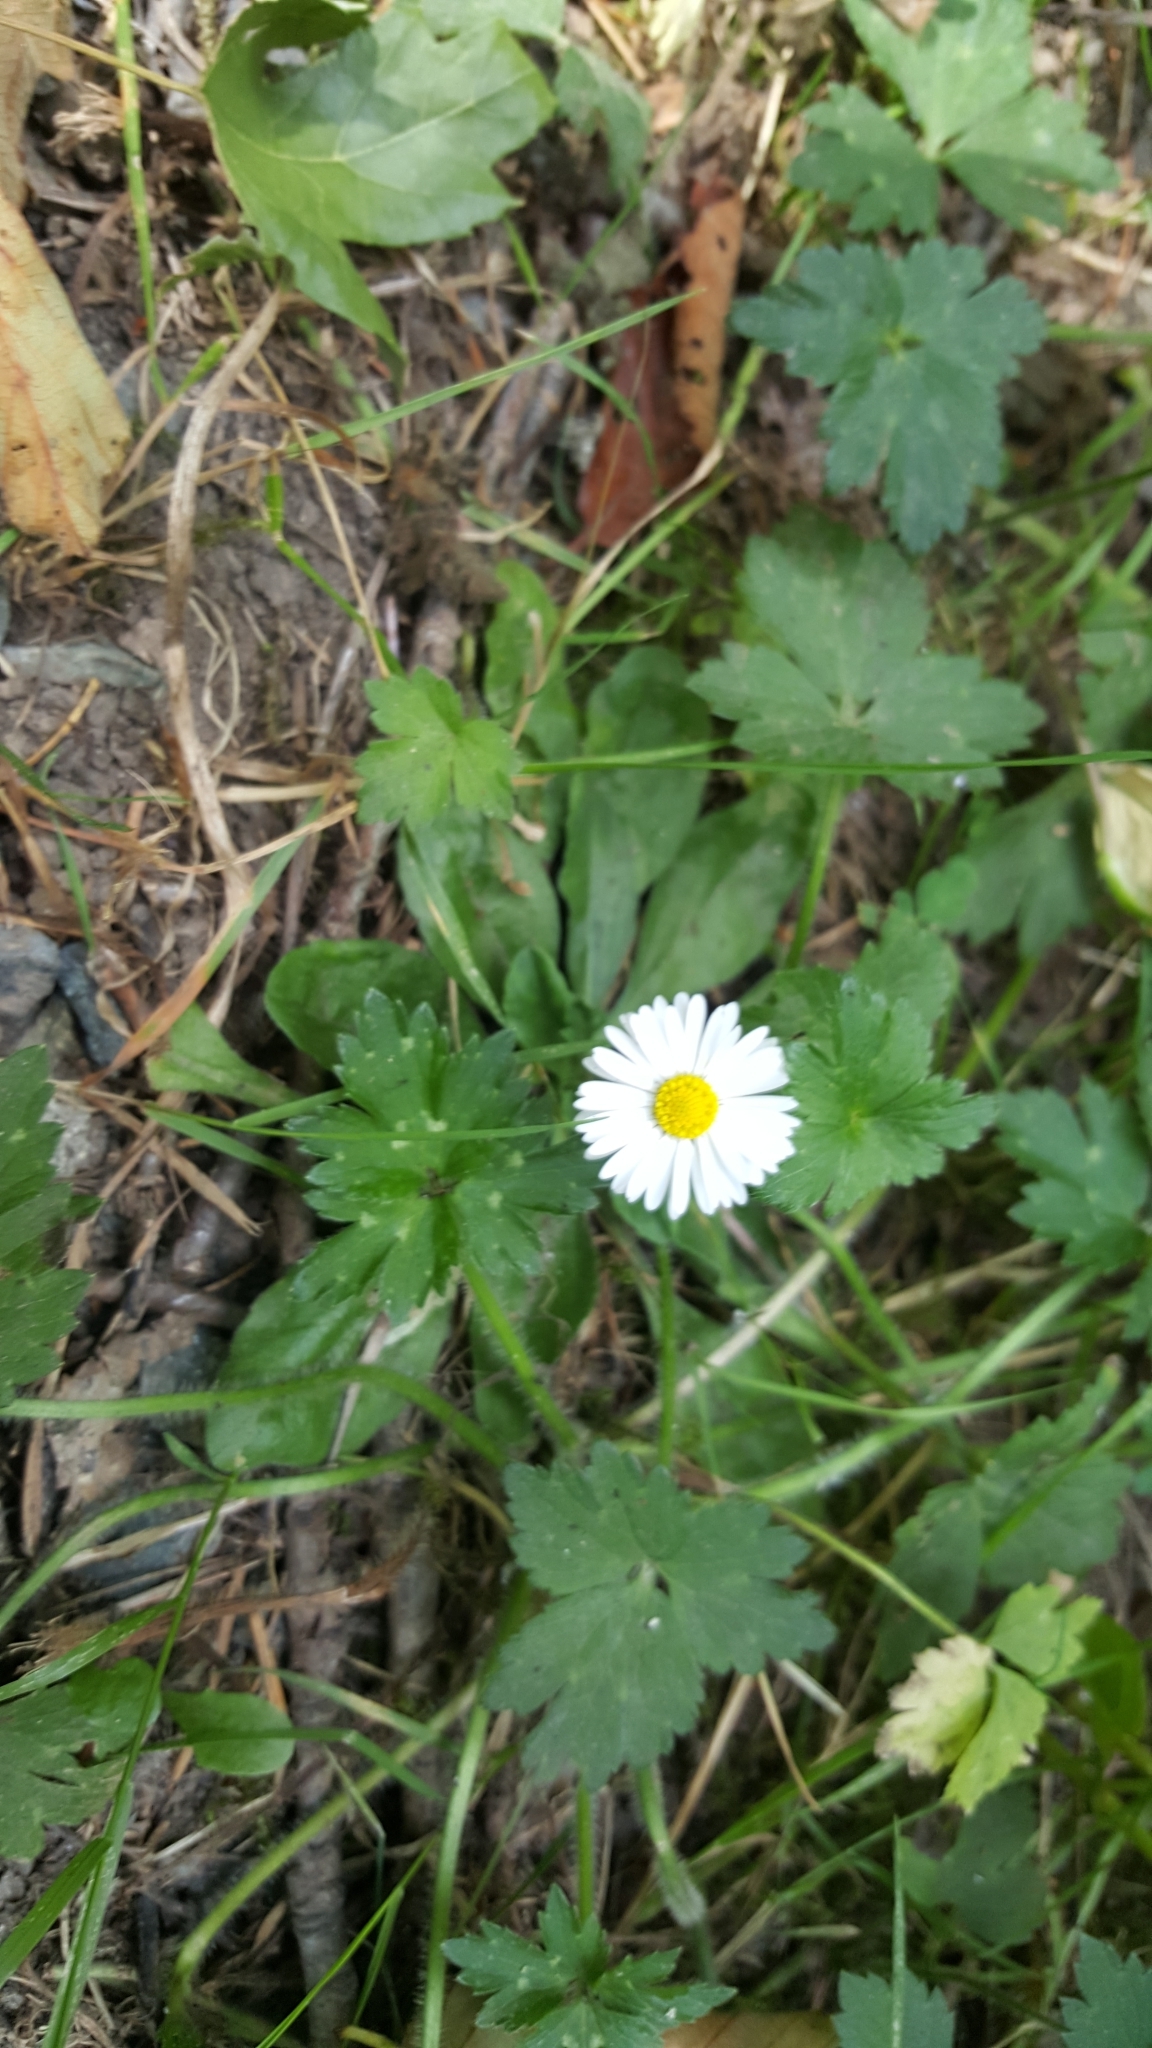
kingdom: Plantae
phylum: Tracheophyta
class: Magnoliopsida
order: Asterales
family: Asteraceae
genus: Bellis
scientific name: Bellis perennis
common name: Lawndaisy
